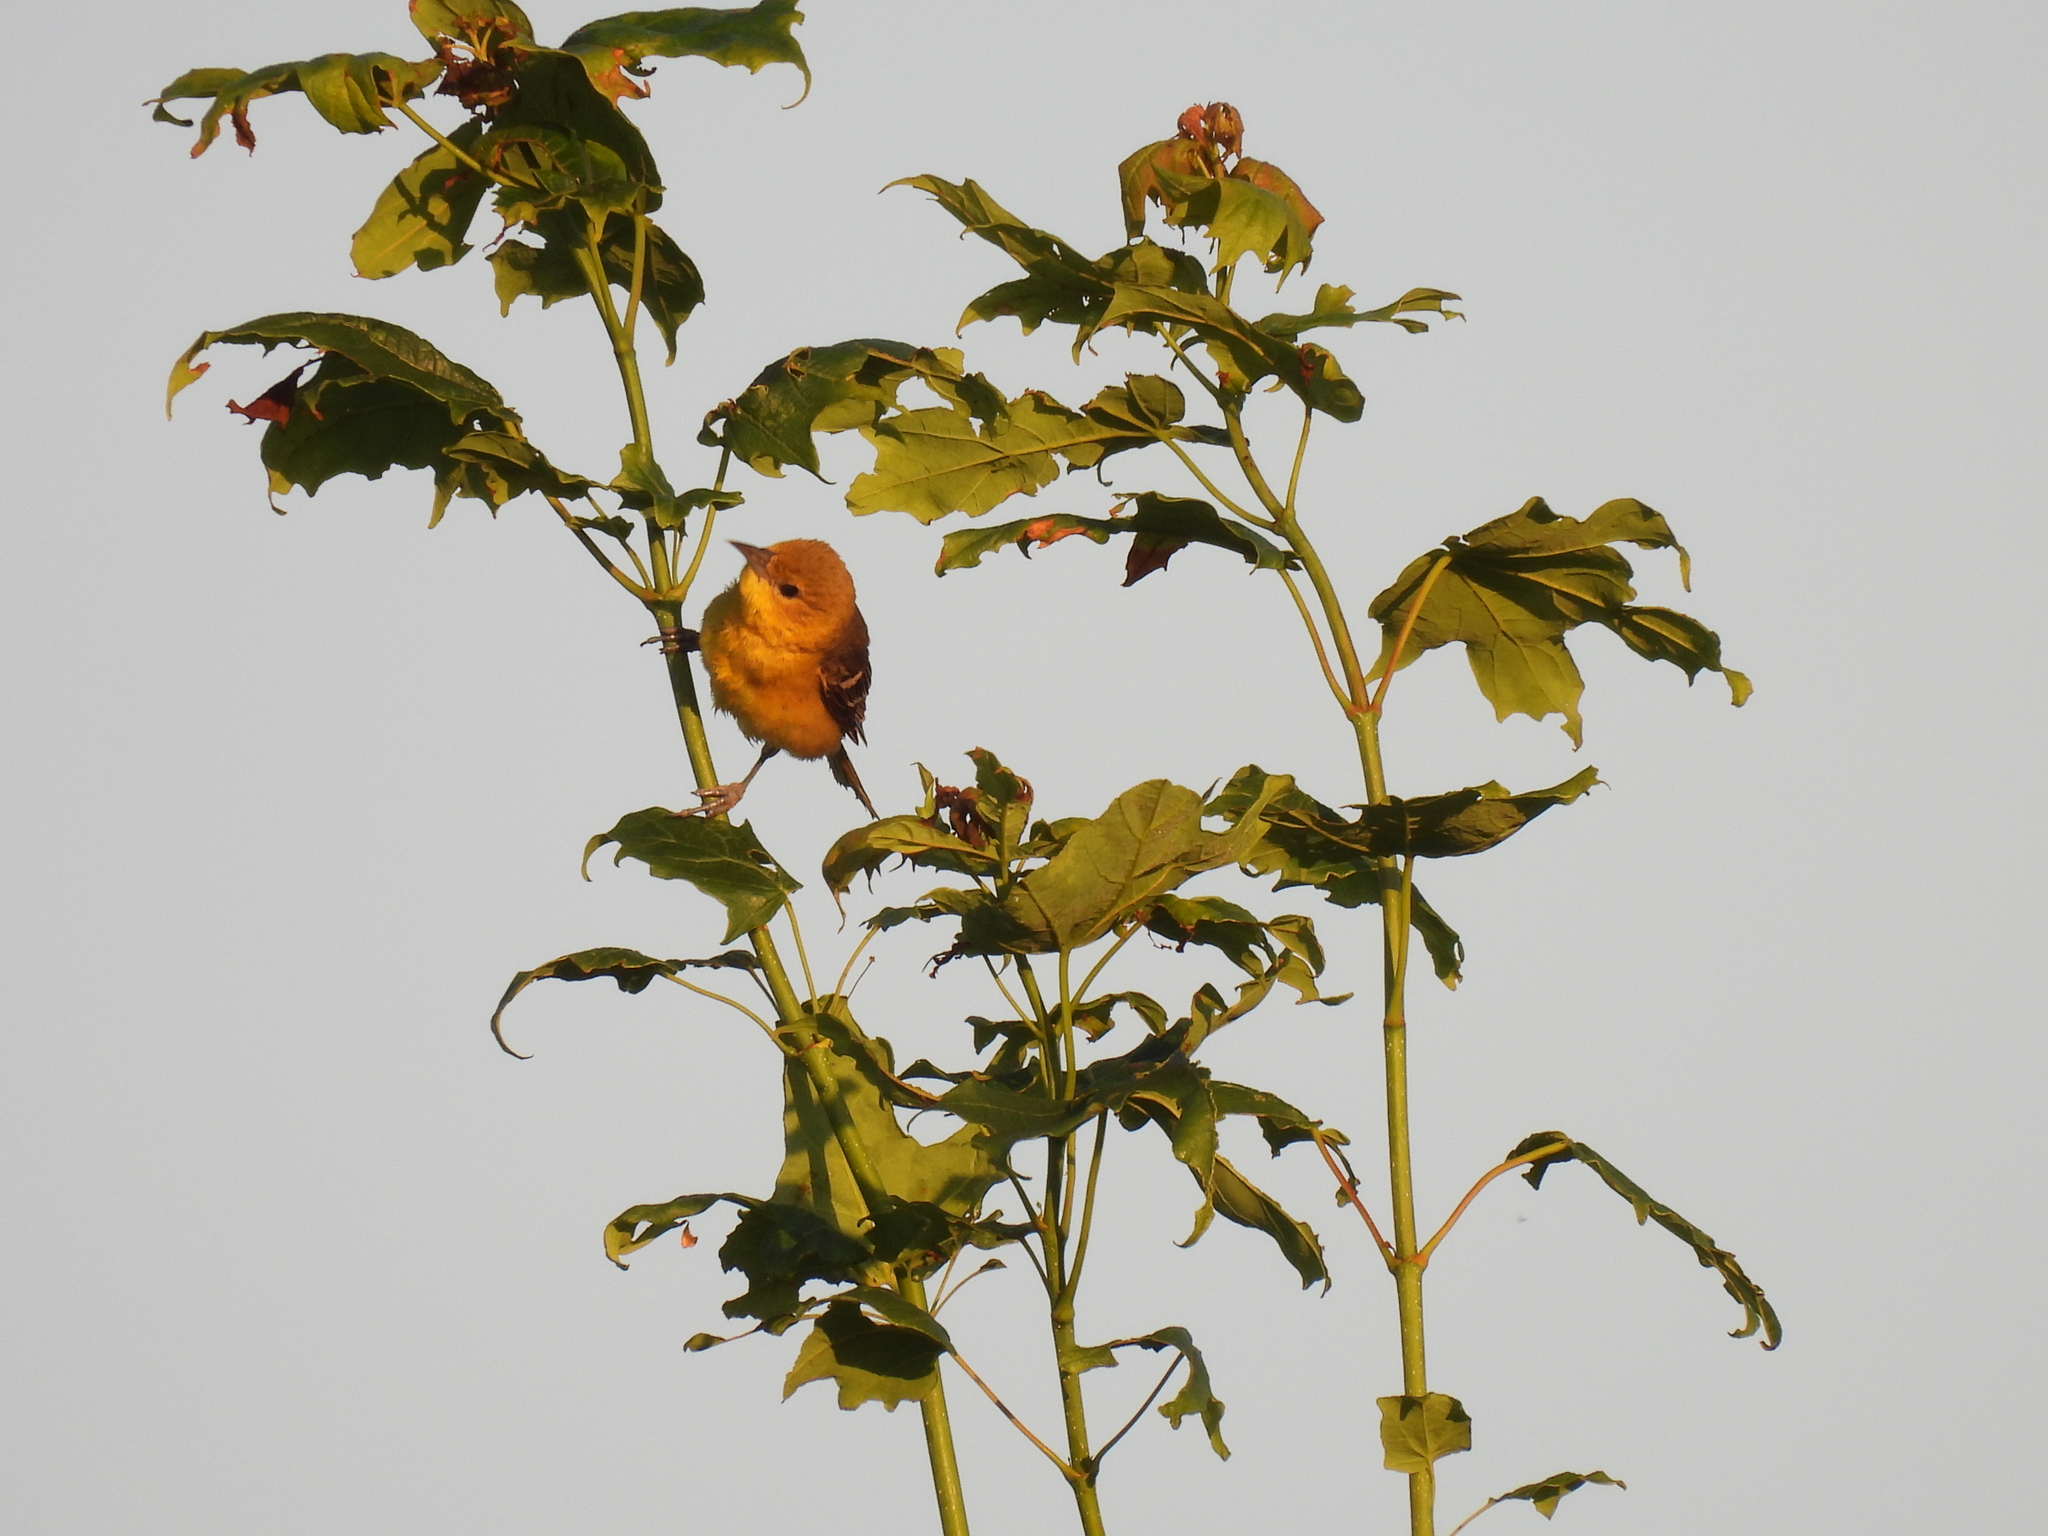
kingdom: Animalia
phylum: Chordata
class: Aves
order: Passeriformes
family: Icteridae
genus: Icterus
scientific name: Icterus spurius
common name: Orchard oriole
